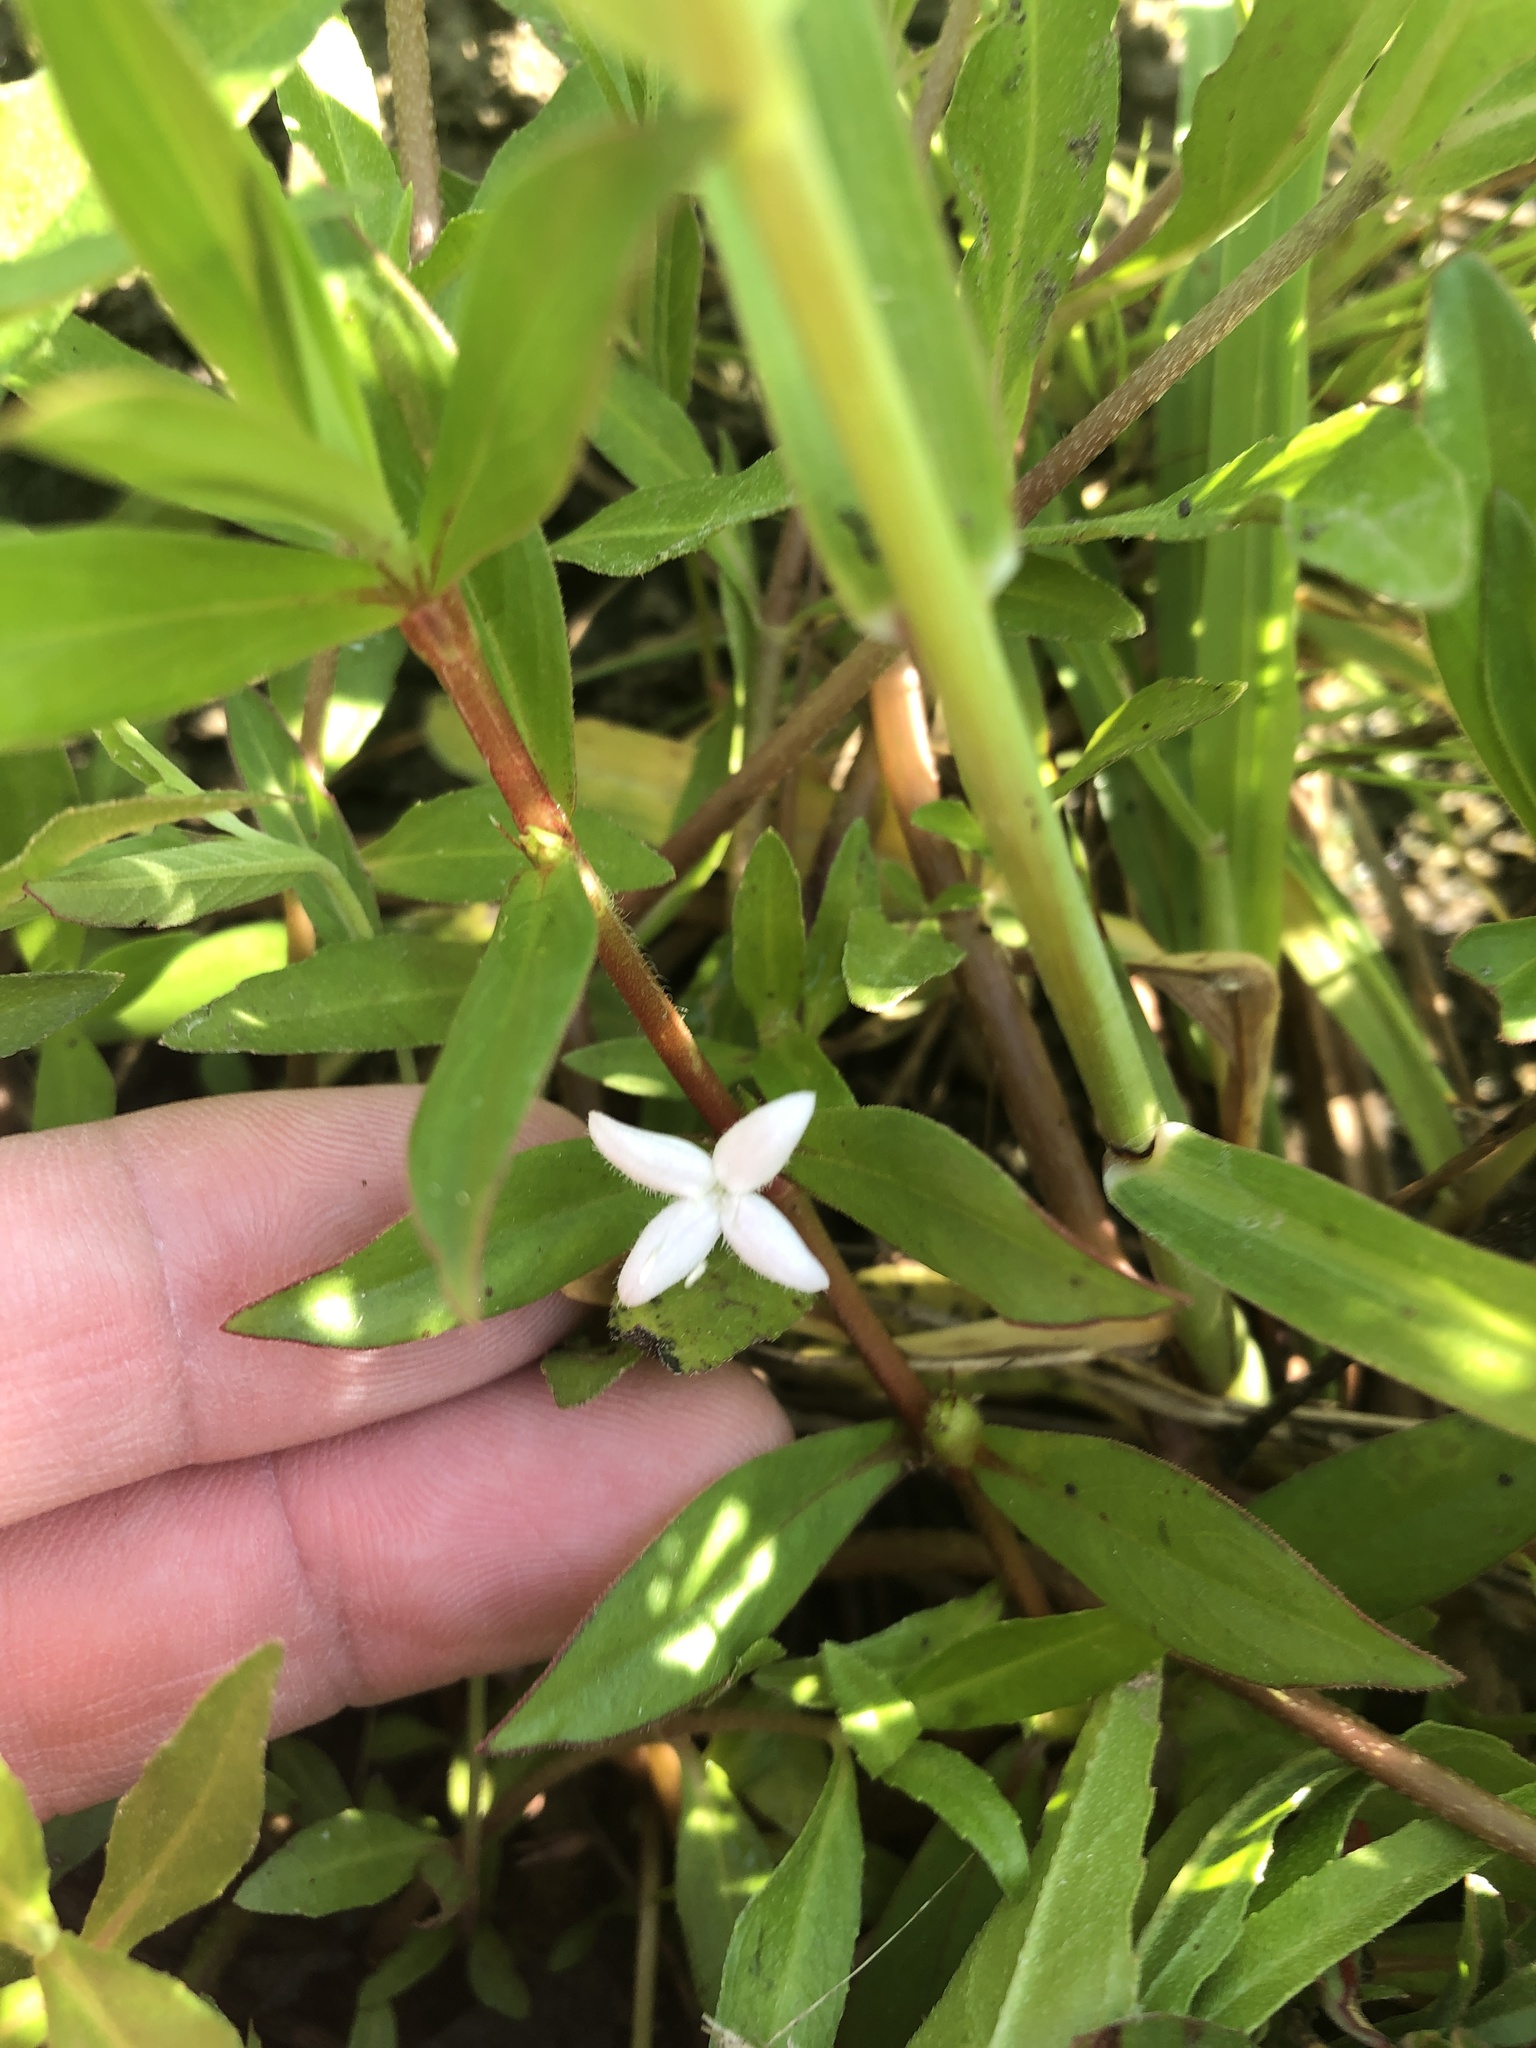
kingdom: Plantae
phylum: Tracheophyta
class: Magnoliopsida
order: Gentianales
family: Rubiaceae
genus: Diodia
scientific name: Diodia virginiana
